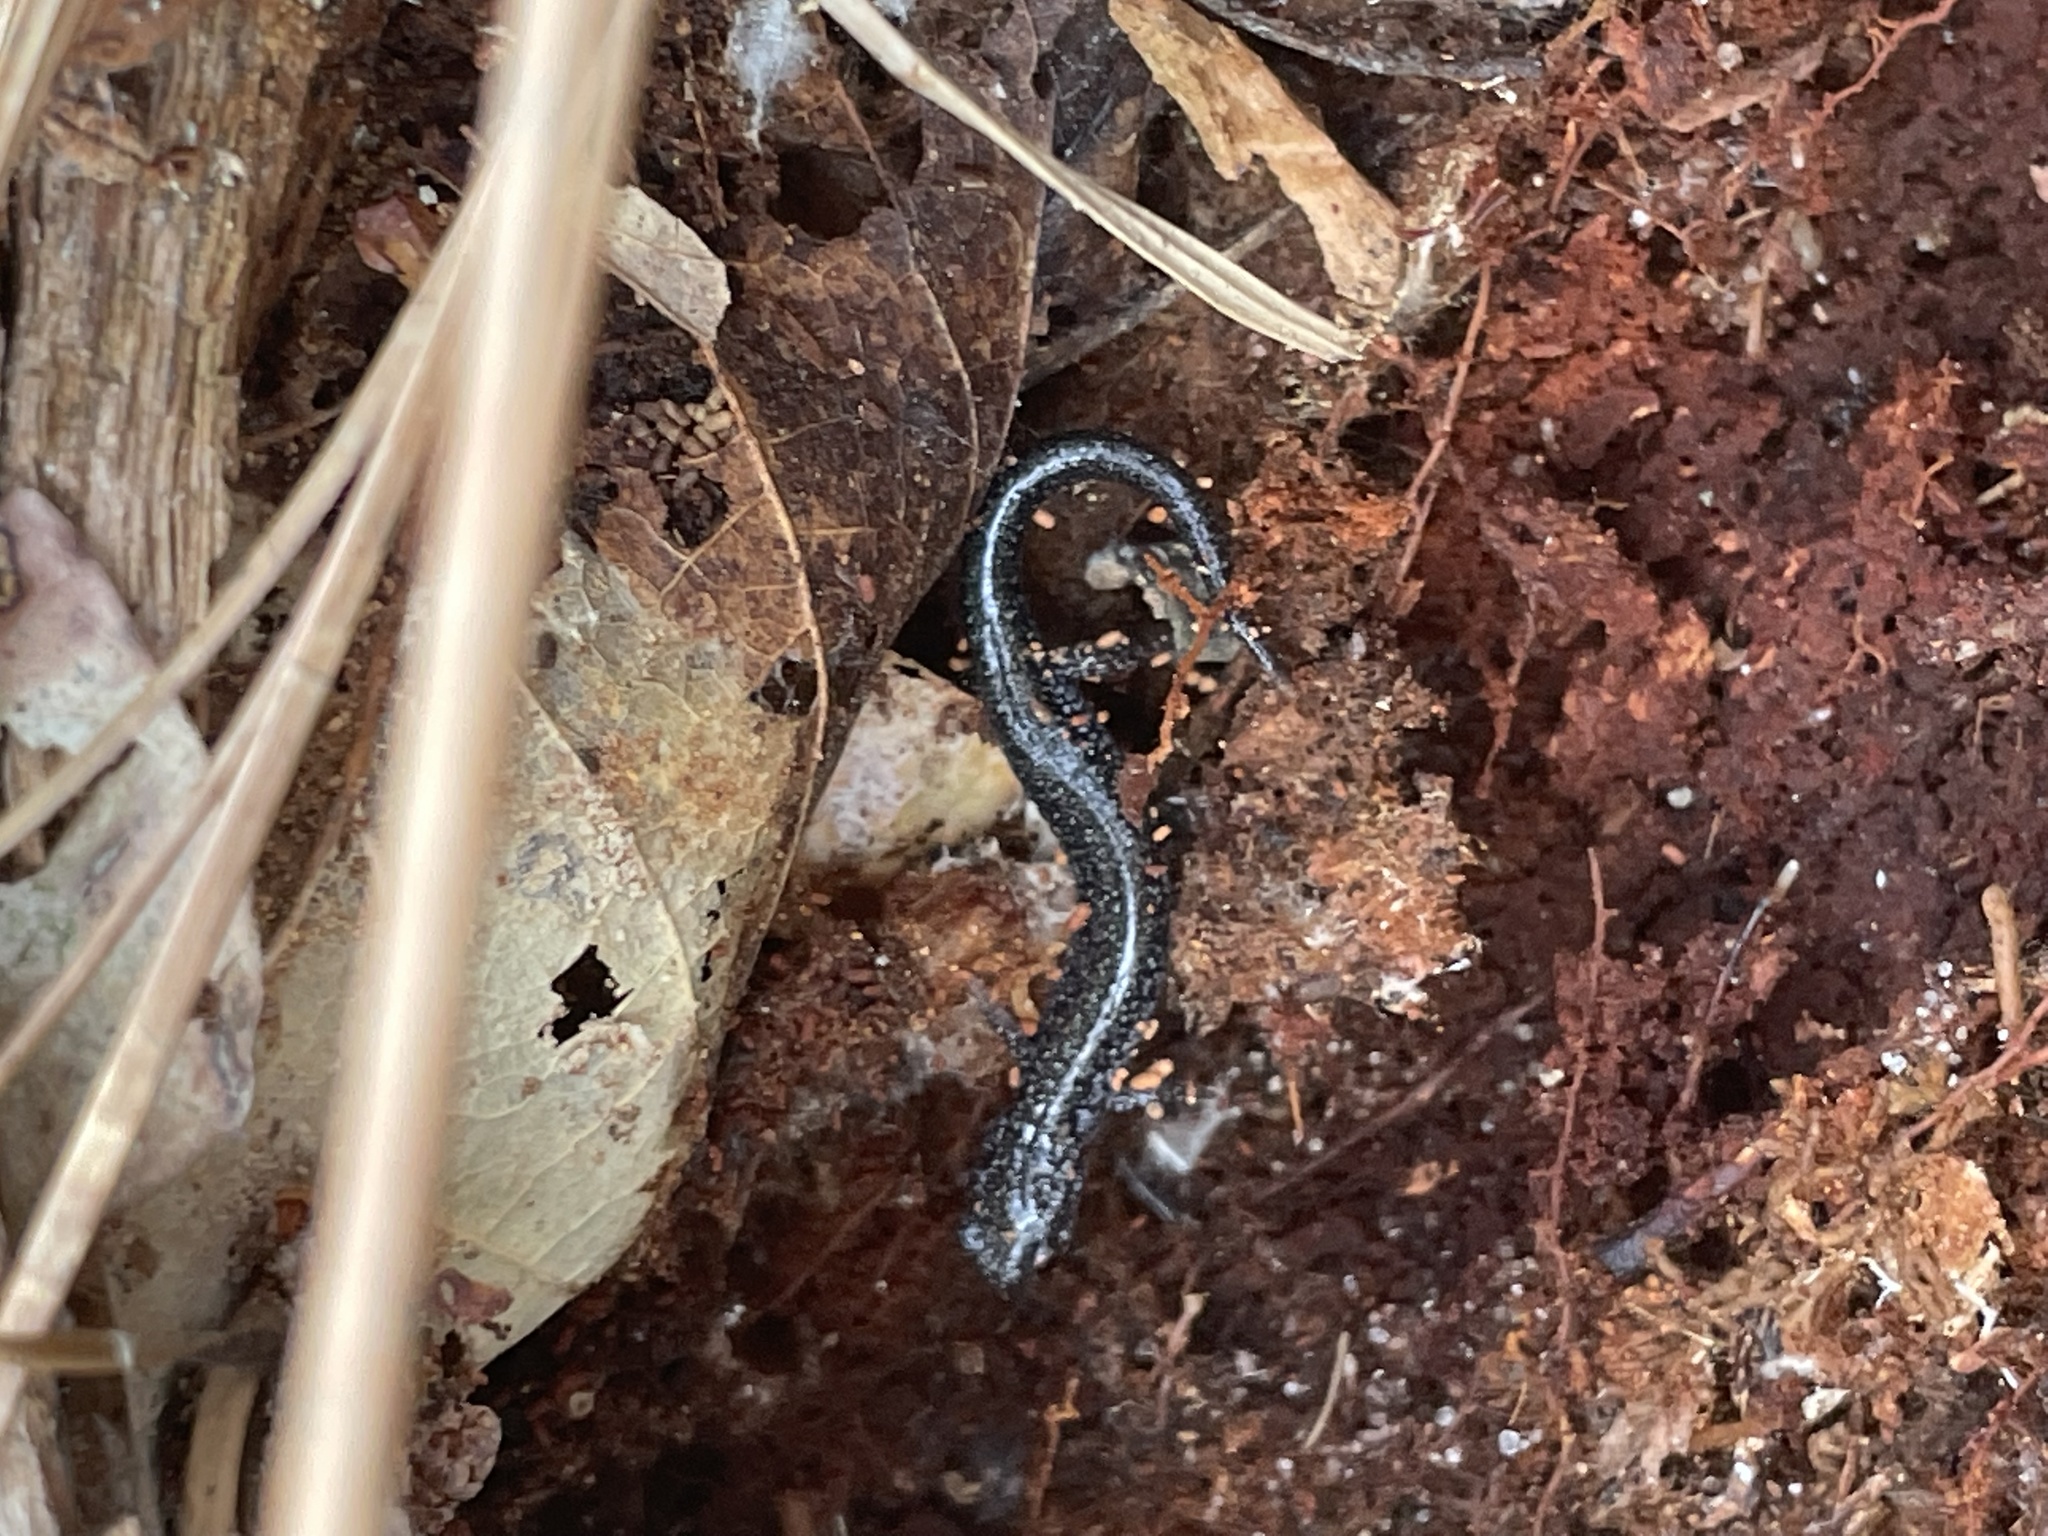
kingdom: Animalia
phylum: Chordata
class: Amphibia
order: Caudata
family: Plethodontidae
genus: Plethodon
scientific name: Plethodon cinereus
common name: Redback salamander
